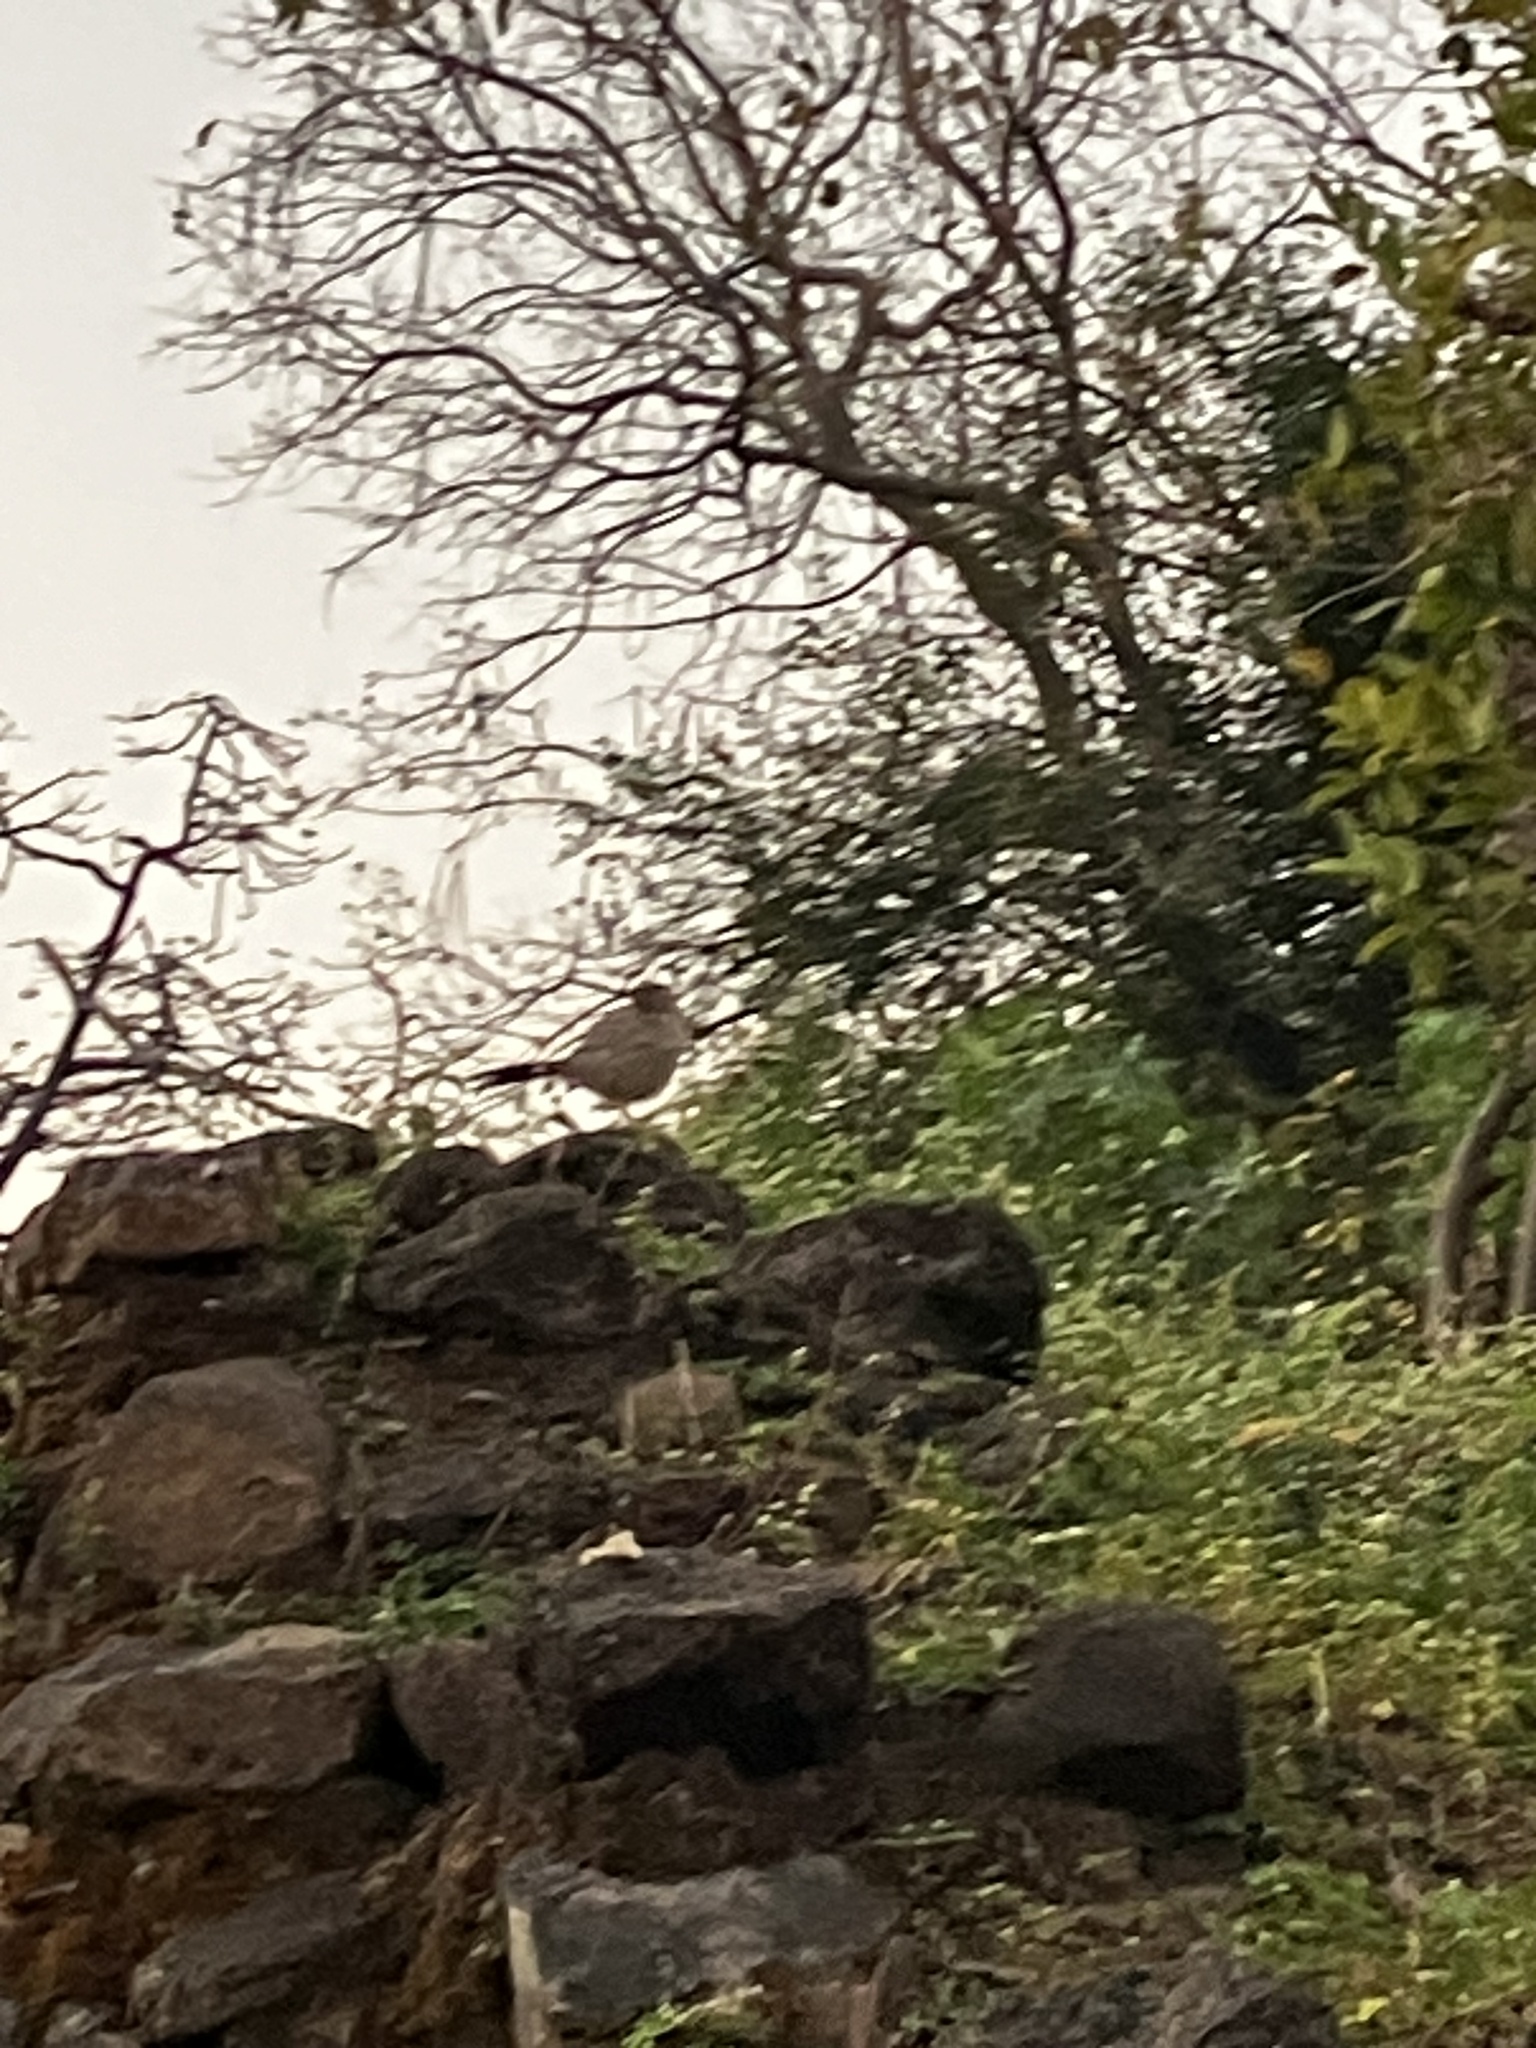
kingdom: Animalia
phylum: Chordata
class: Aves
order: Passeriformes
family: Leiothrichidae
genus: Turdoides
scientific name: Turdoides striata
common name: Jungle babbler
